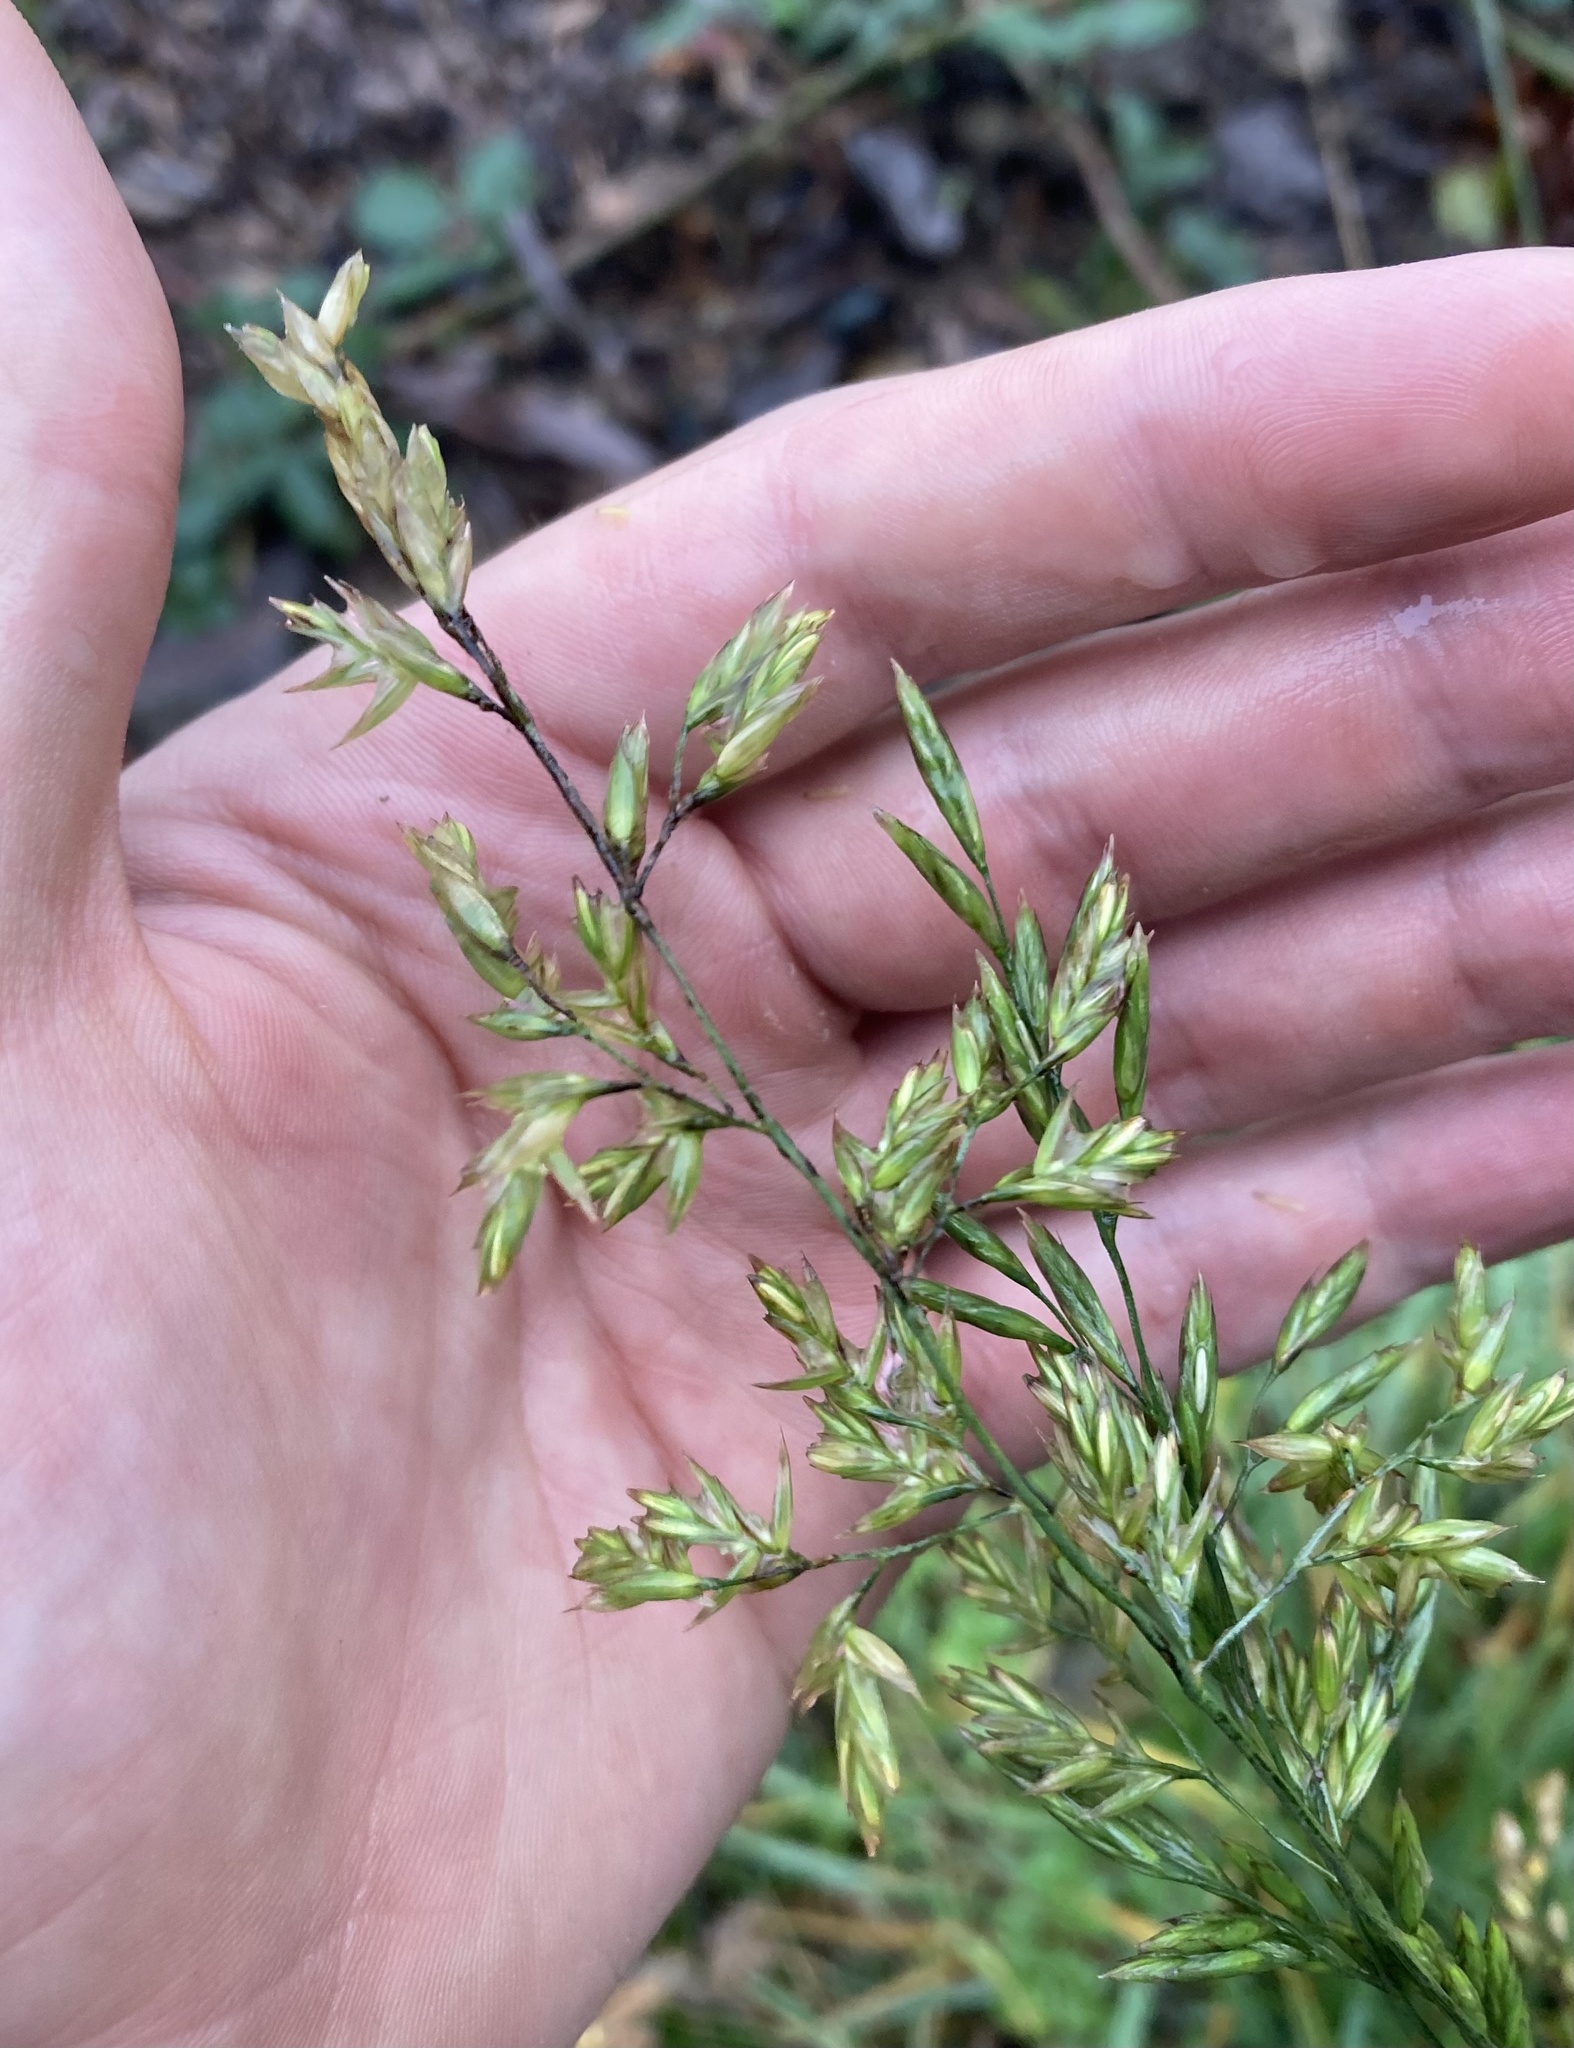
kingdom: Plantae
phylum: Tracheophyta
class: Liliopsida
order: Poales
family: Poaceae
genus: Poa
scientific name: Poa annua
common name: Annual bluegrass
